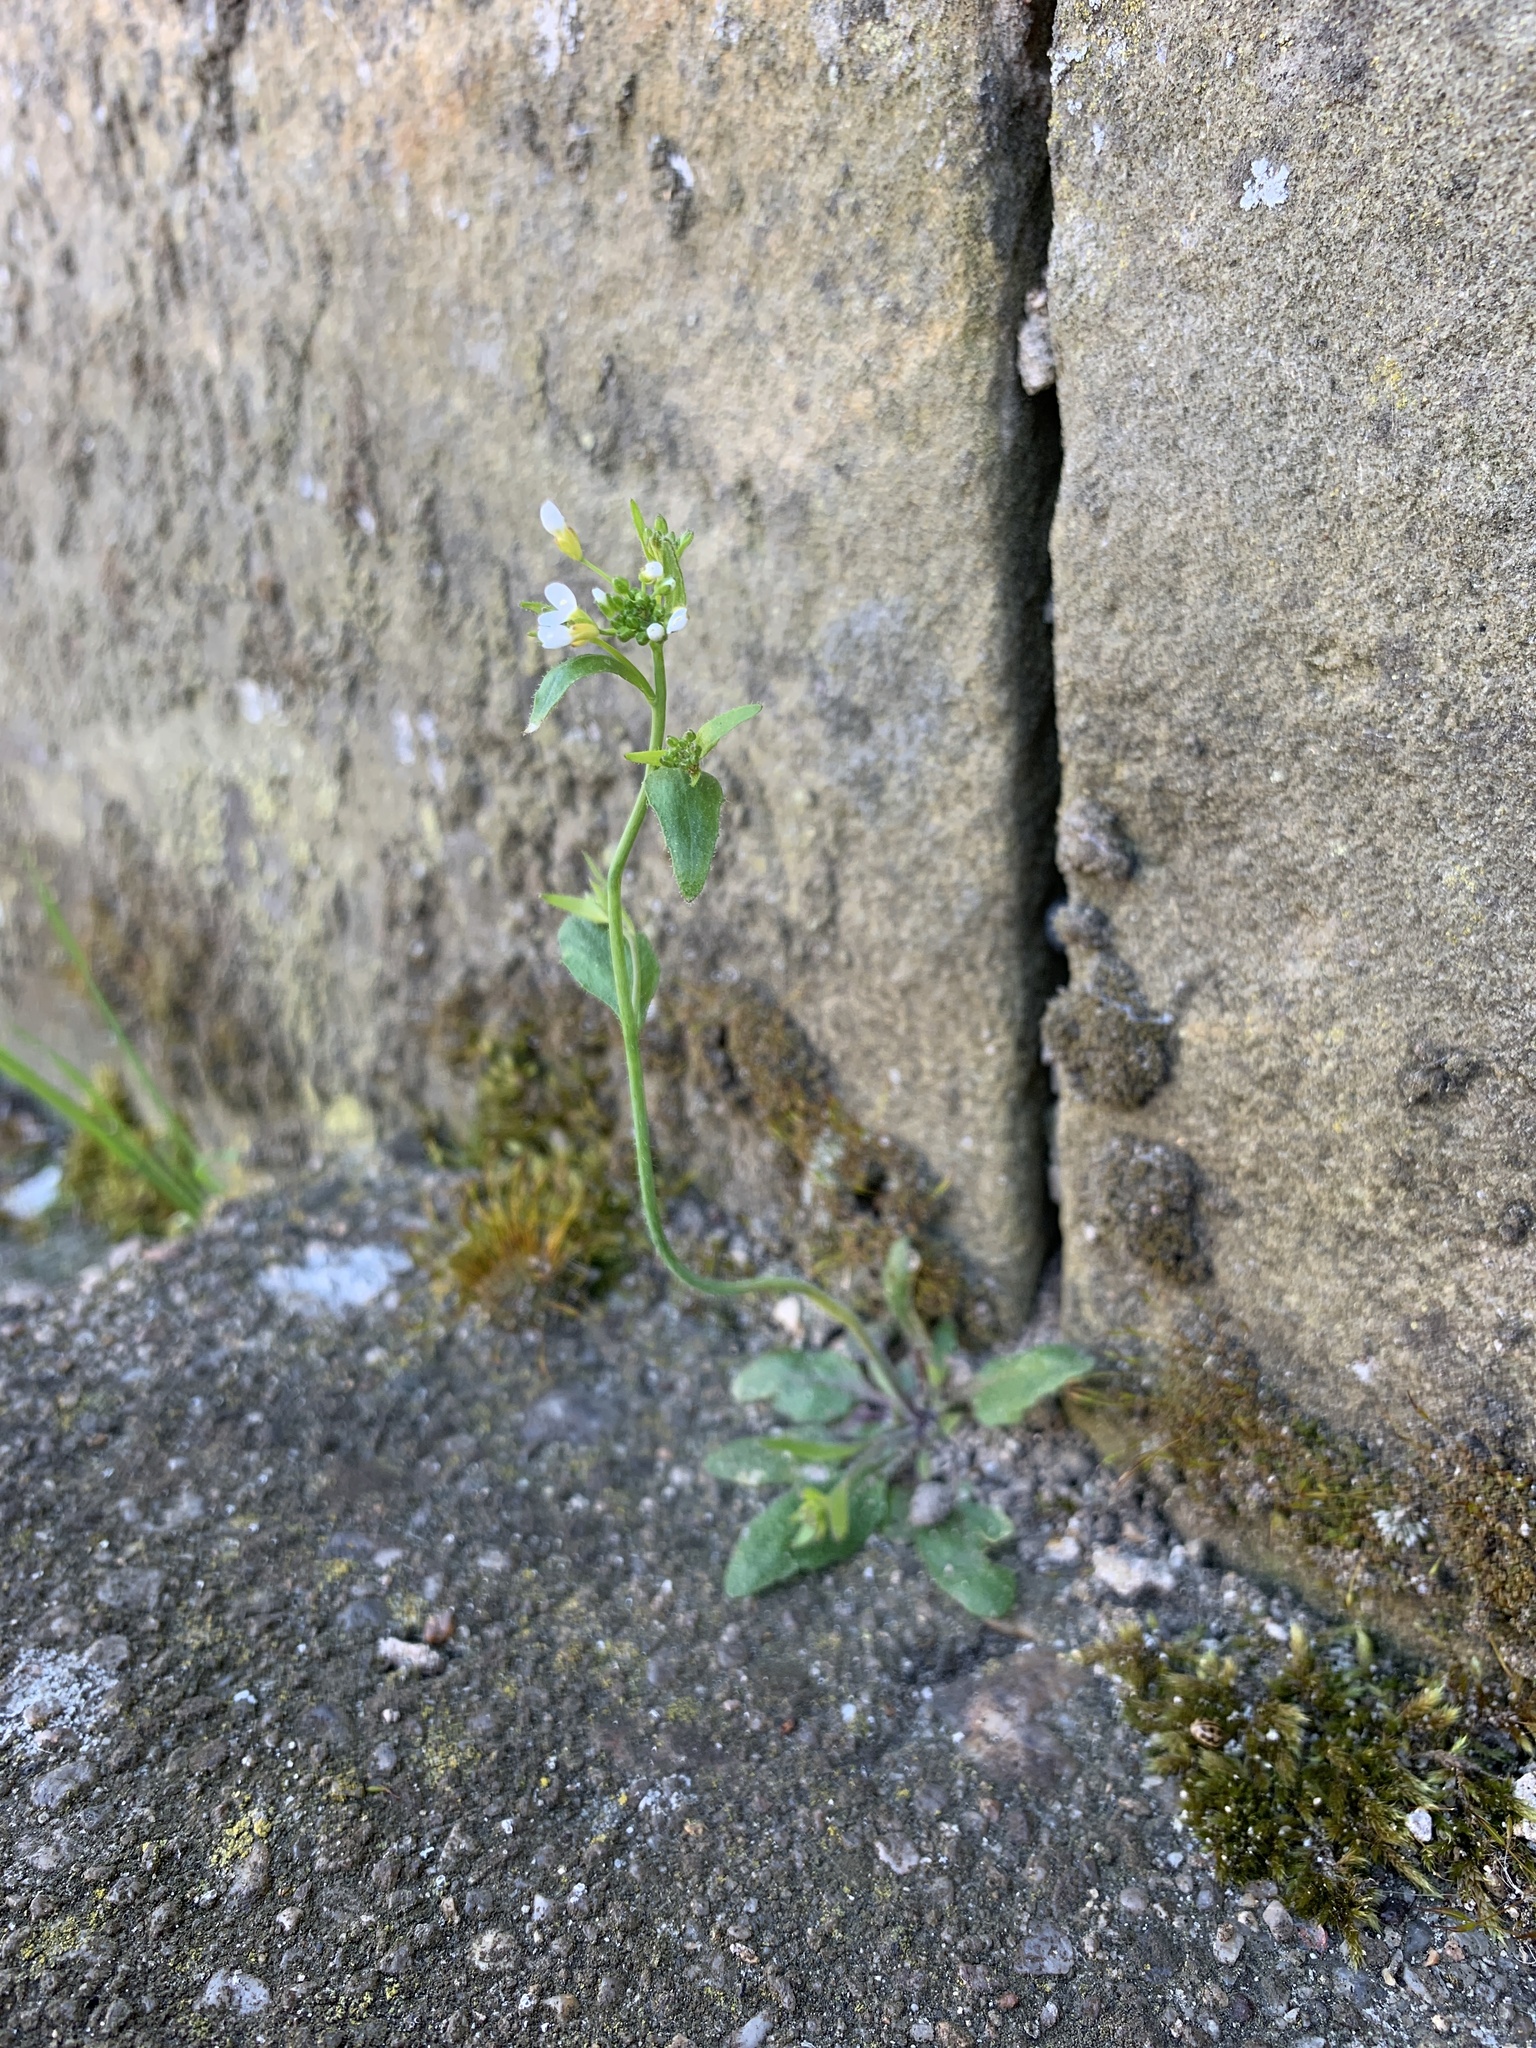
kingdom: Plantae
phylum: Tracheophyta
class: Magnoliopsida
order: Brassicales
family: Brassicaceae
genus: Arabidopsis
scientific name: Arabidopsis thaliana
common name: Thale cress
